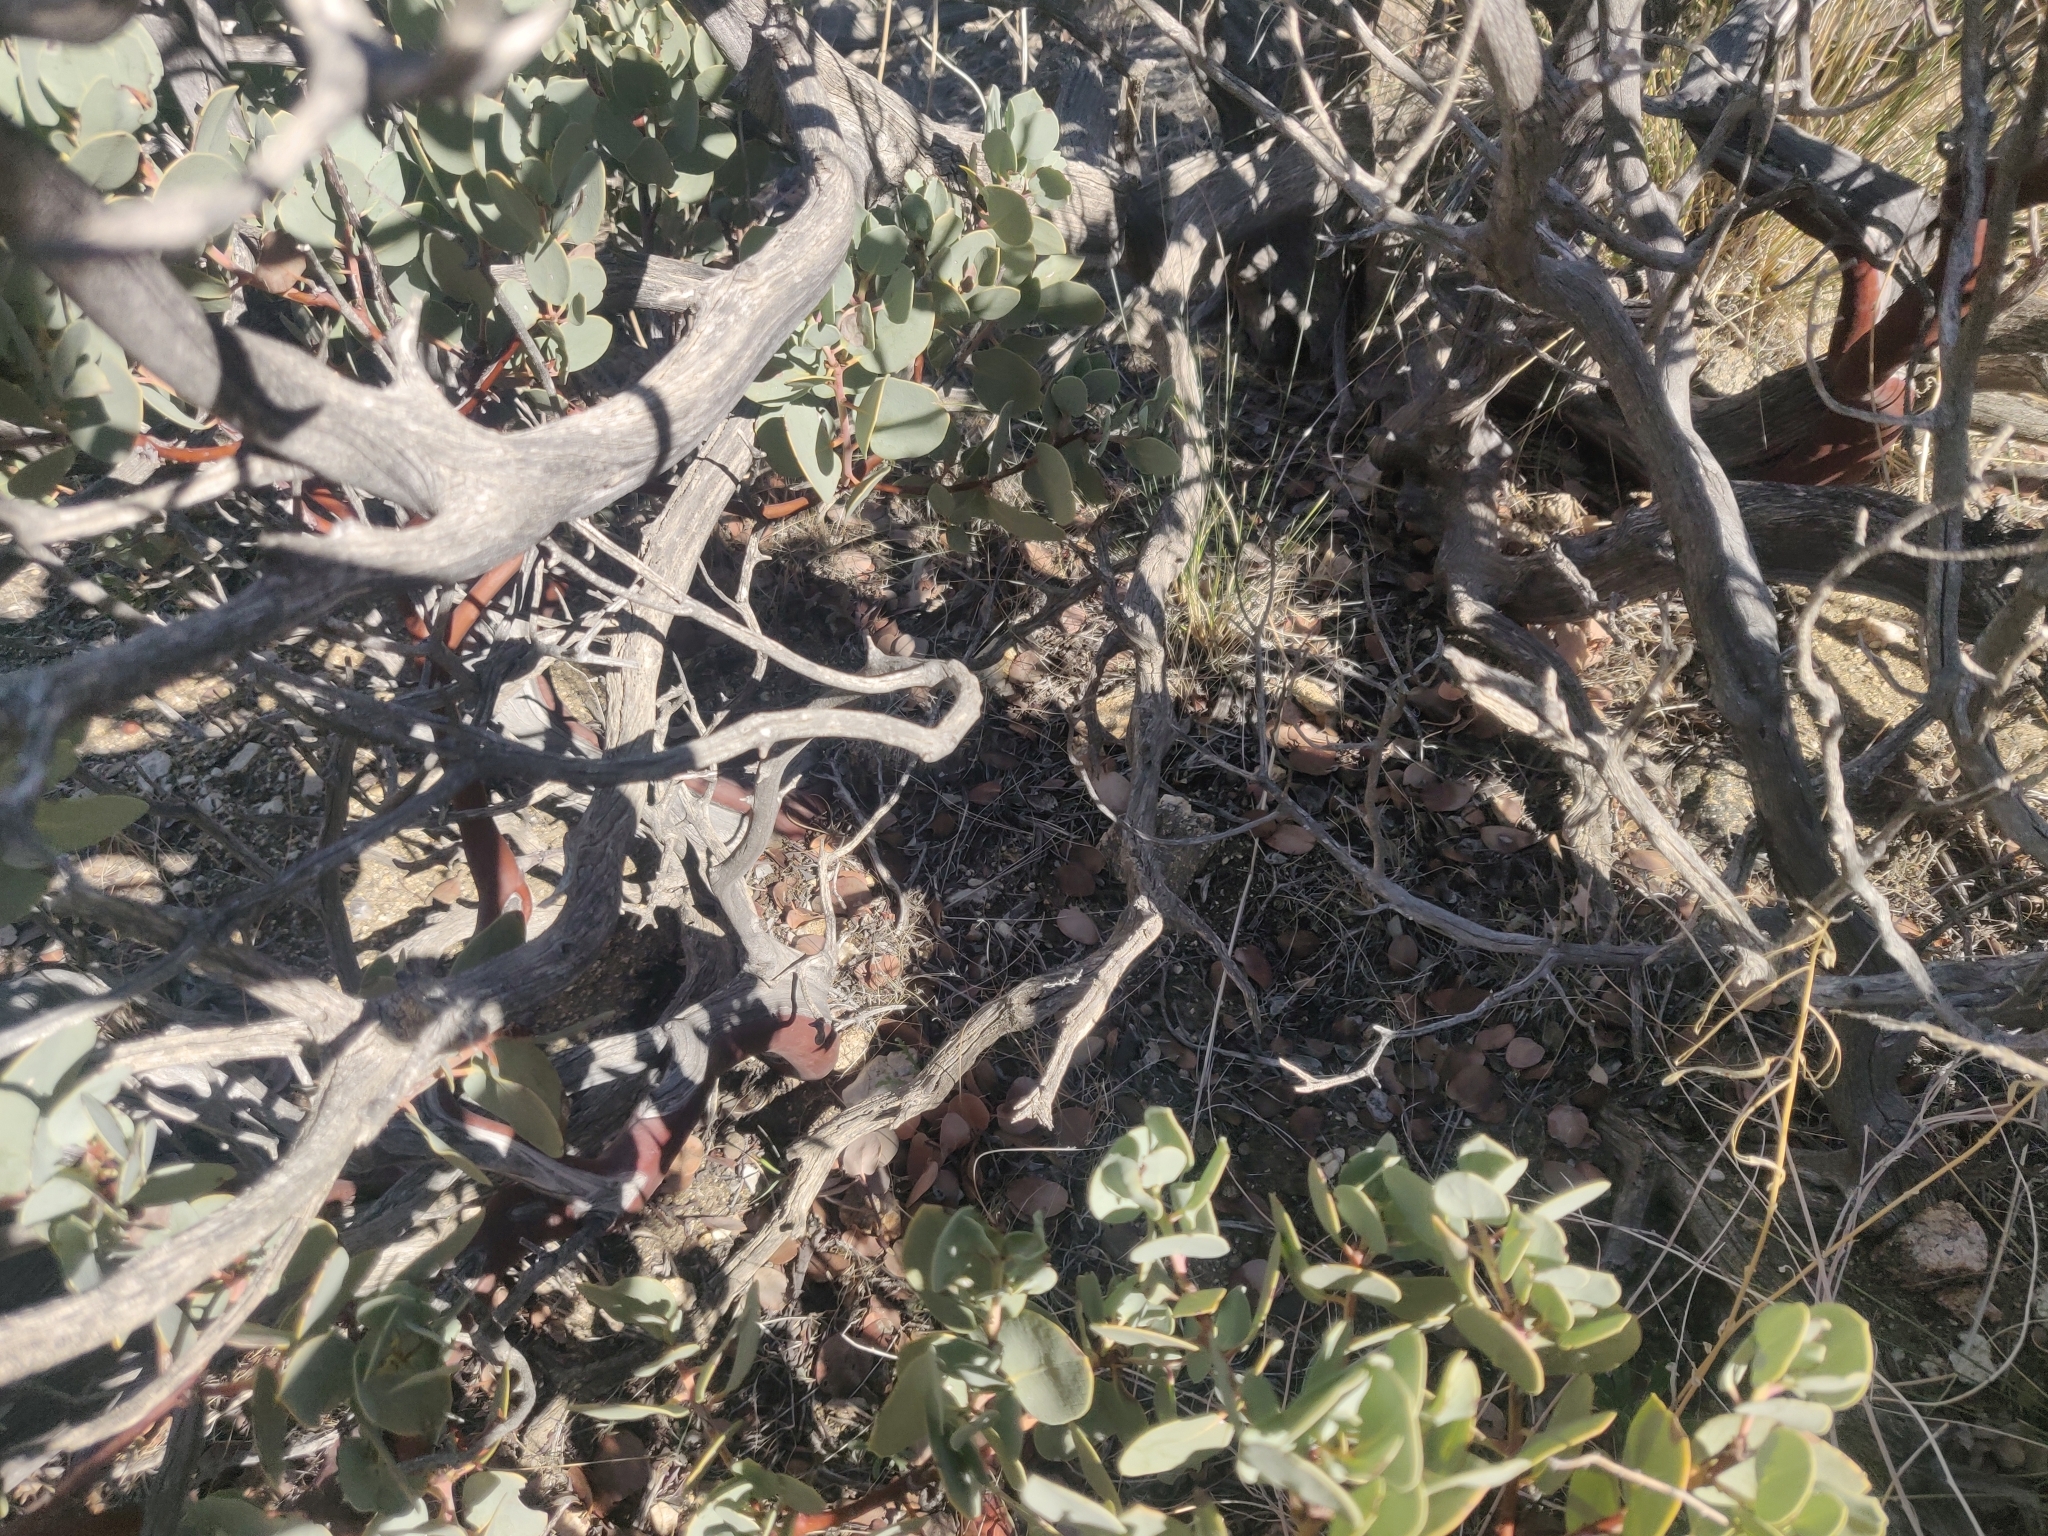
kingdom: Plantae
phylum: Tracheophyta
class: Magnoliopsida
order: Ericales
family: Ericaceae
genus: Arctostaphylos
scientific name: Arctostaphylos glauca
